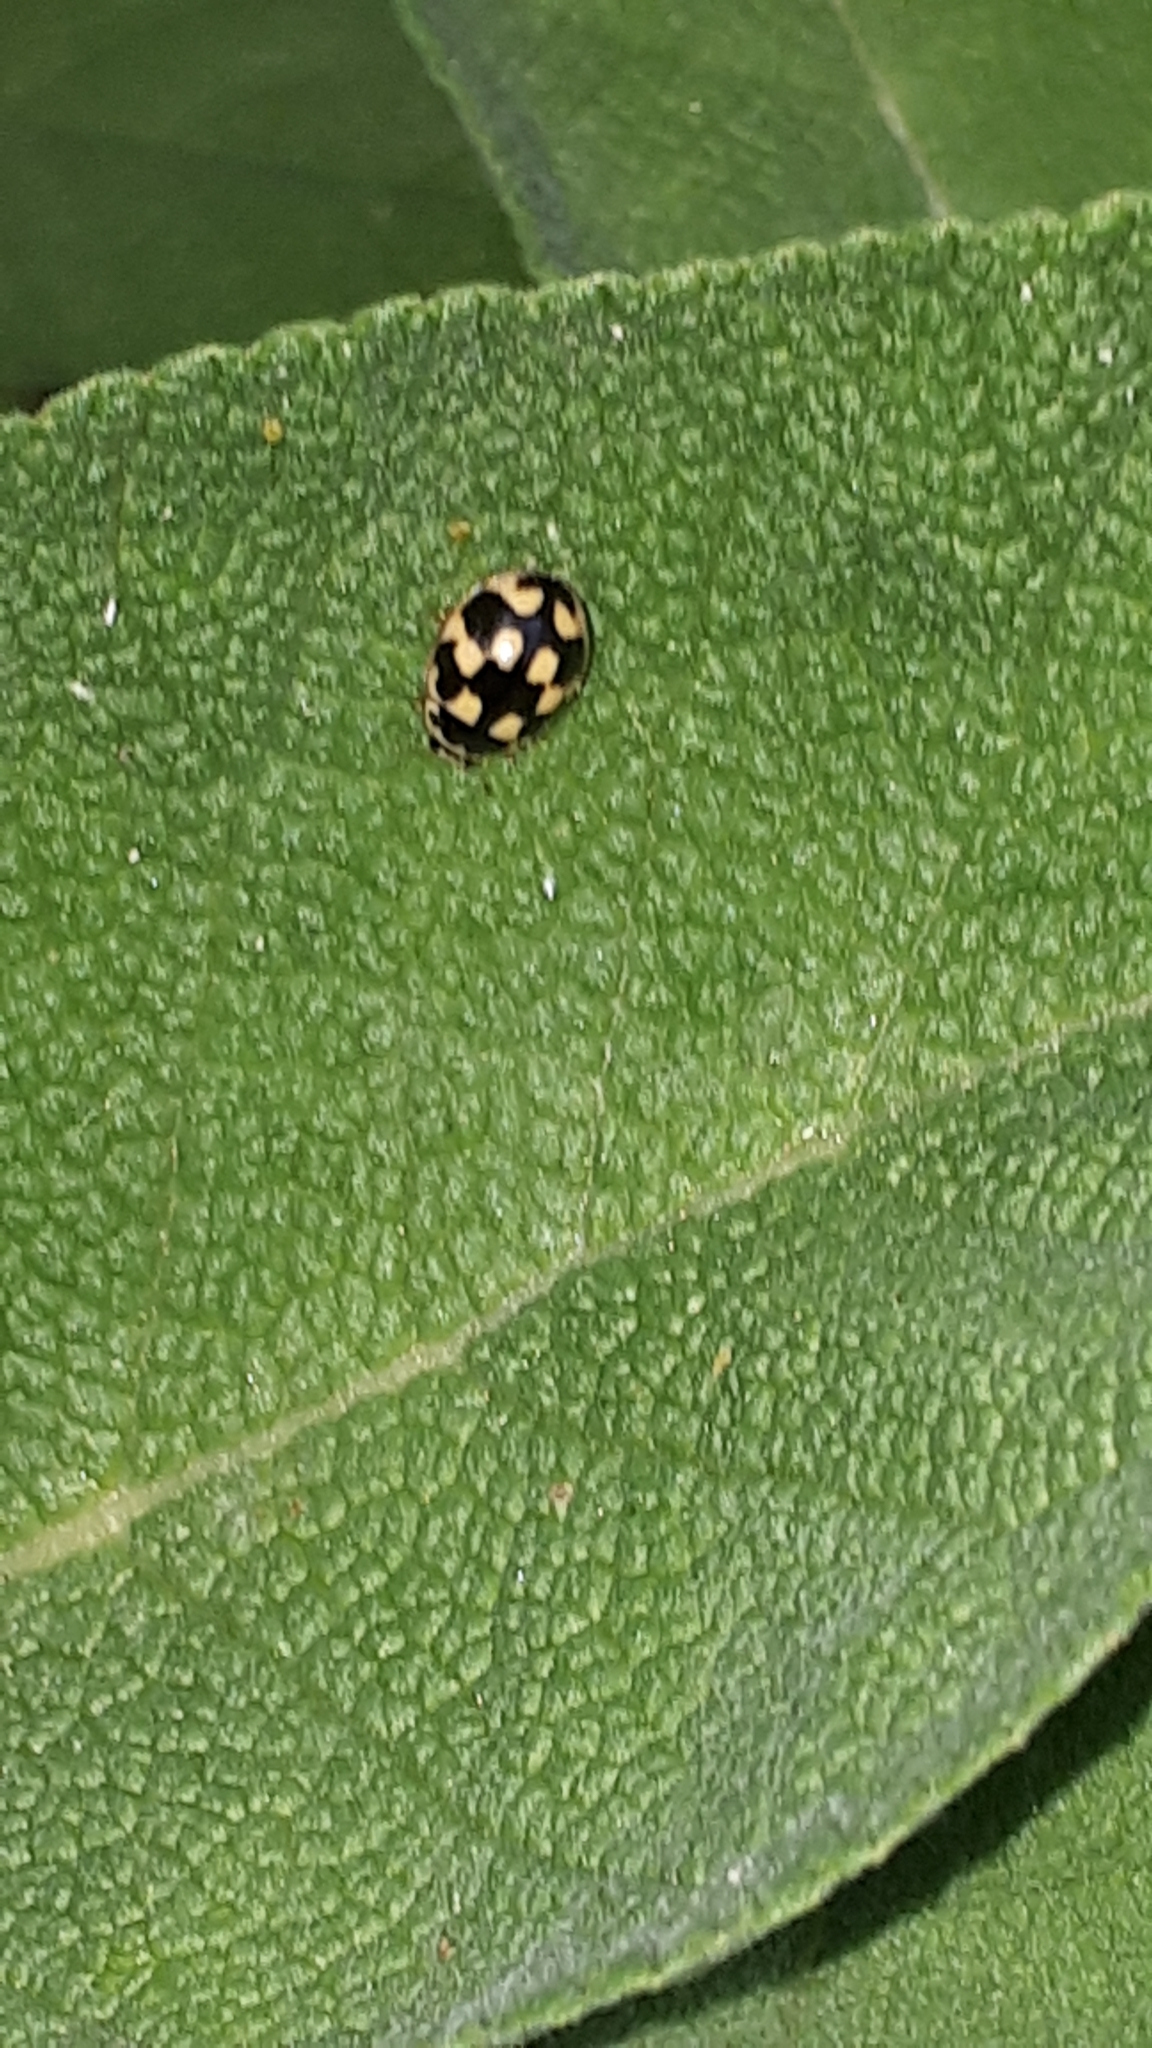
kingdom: Animalia
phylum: Arthropoda
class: Insecta
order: Coleoptera
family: Coccinellidae
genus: Propylaea
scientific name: Propylaea quatuordecimpunctata
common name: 14-spotted ladybird beetle
